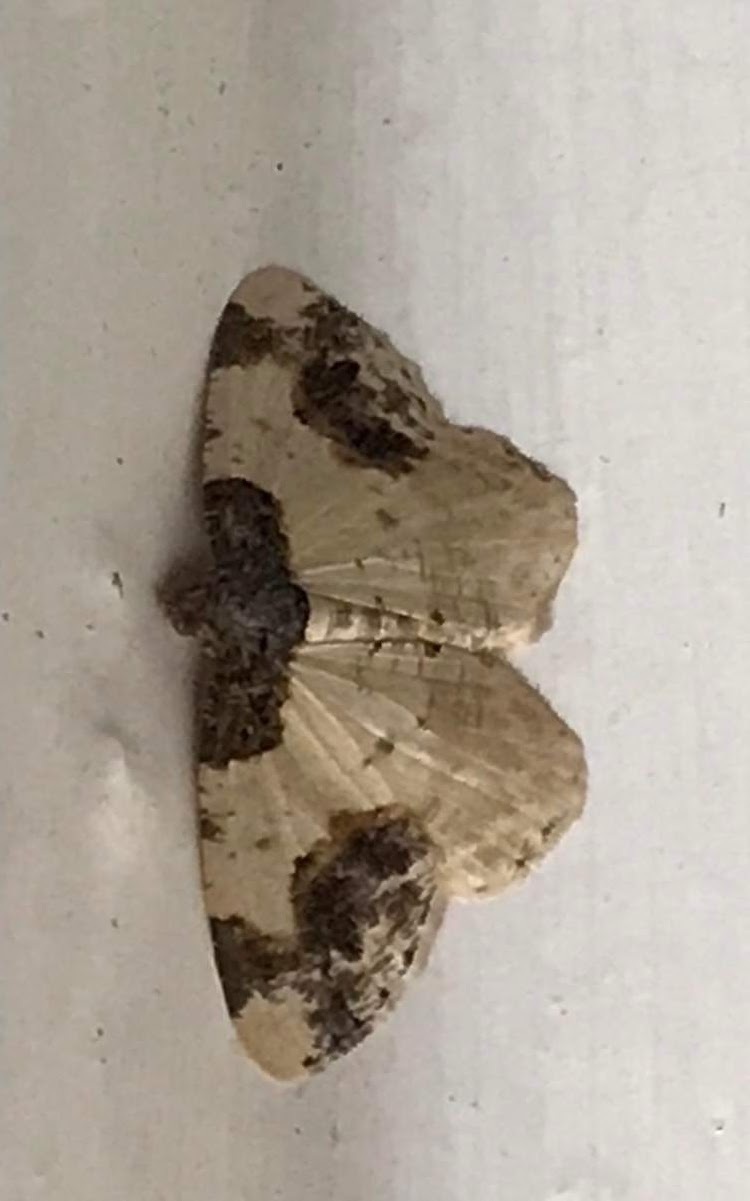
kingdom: Animalia
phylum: Arthropoda
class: Insecta
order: Lepidoptera
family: Geometridae
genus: Ligdia
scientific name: Ligdia adustata
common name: Scorched carpet
